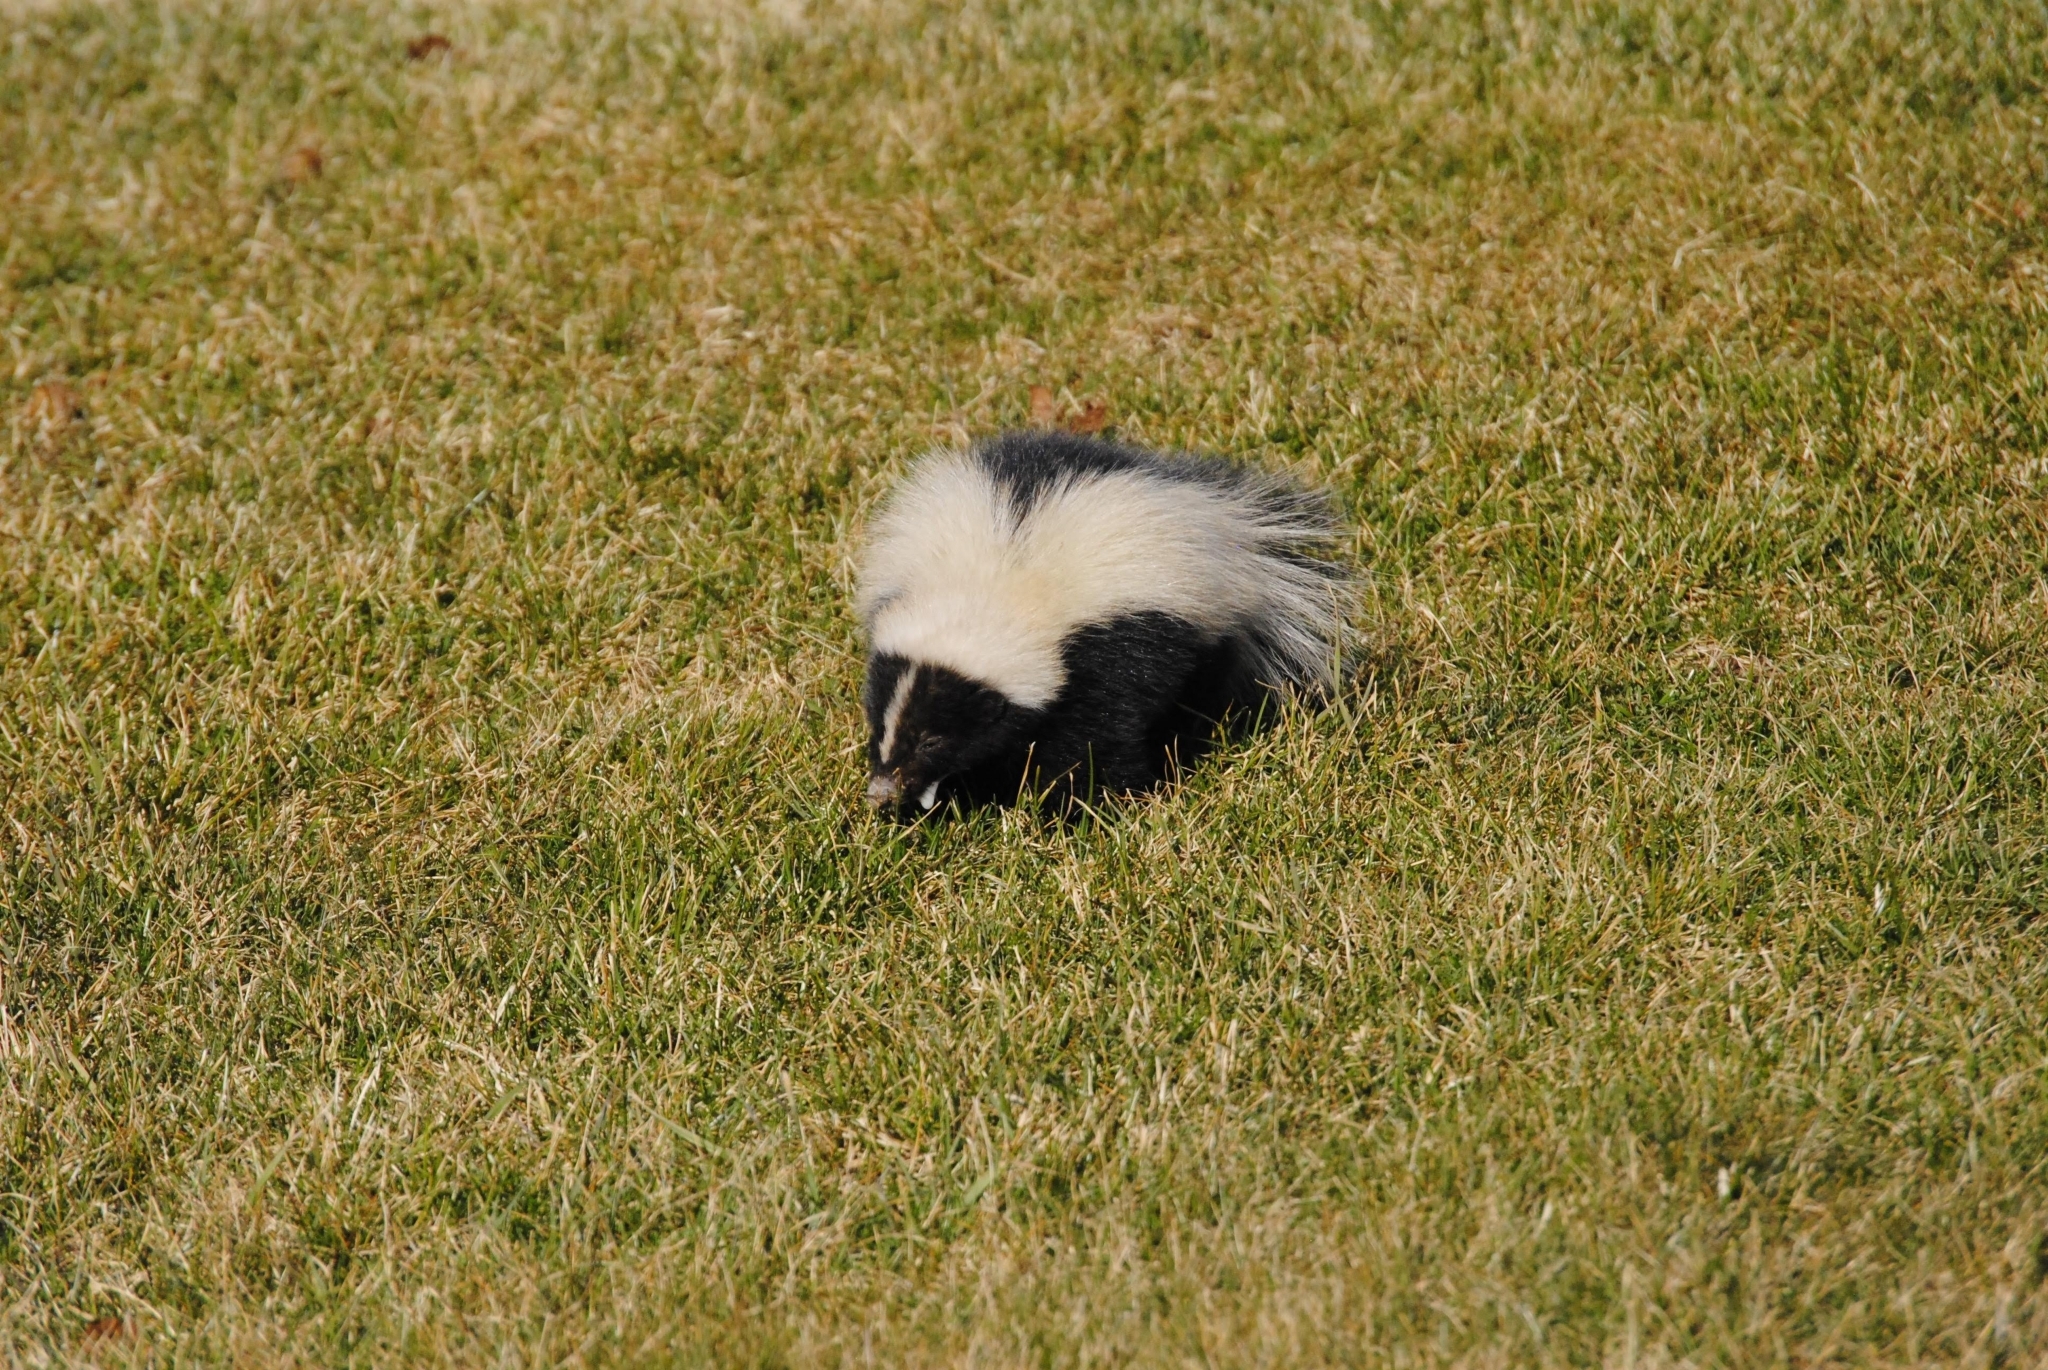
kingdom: Animalia
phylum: Chordata
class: Mammalia
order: Carnivora
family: Mephitidae
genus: Mephitis
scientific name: Mephitis mephitis
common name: Striped skunk
